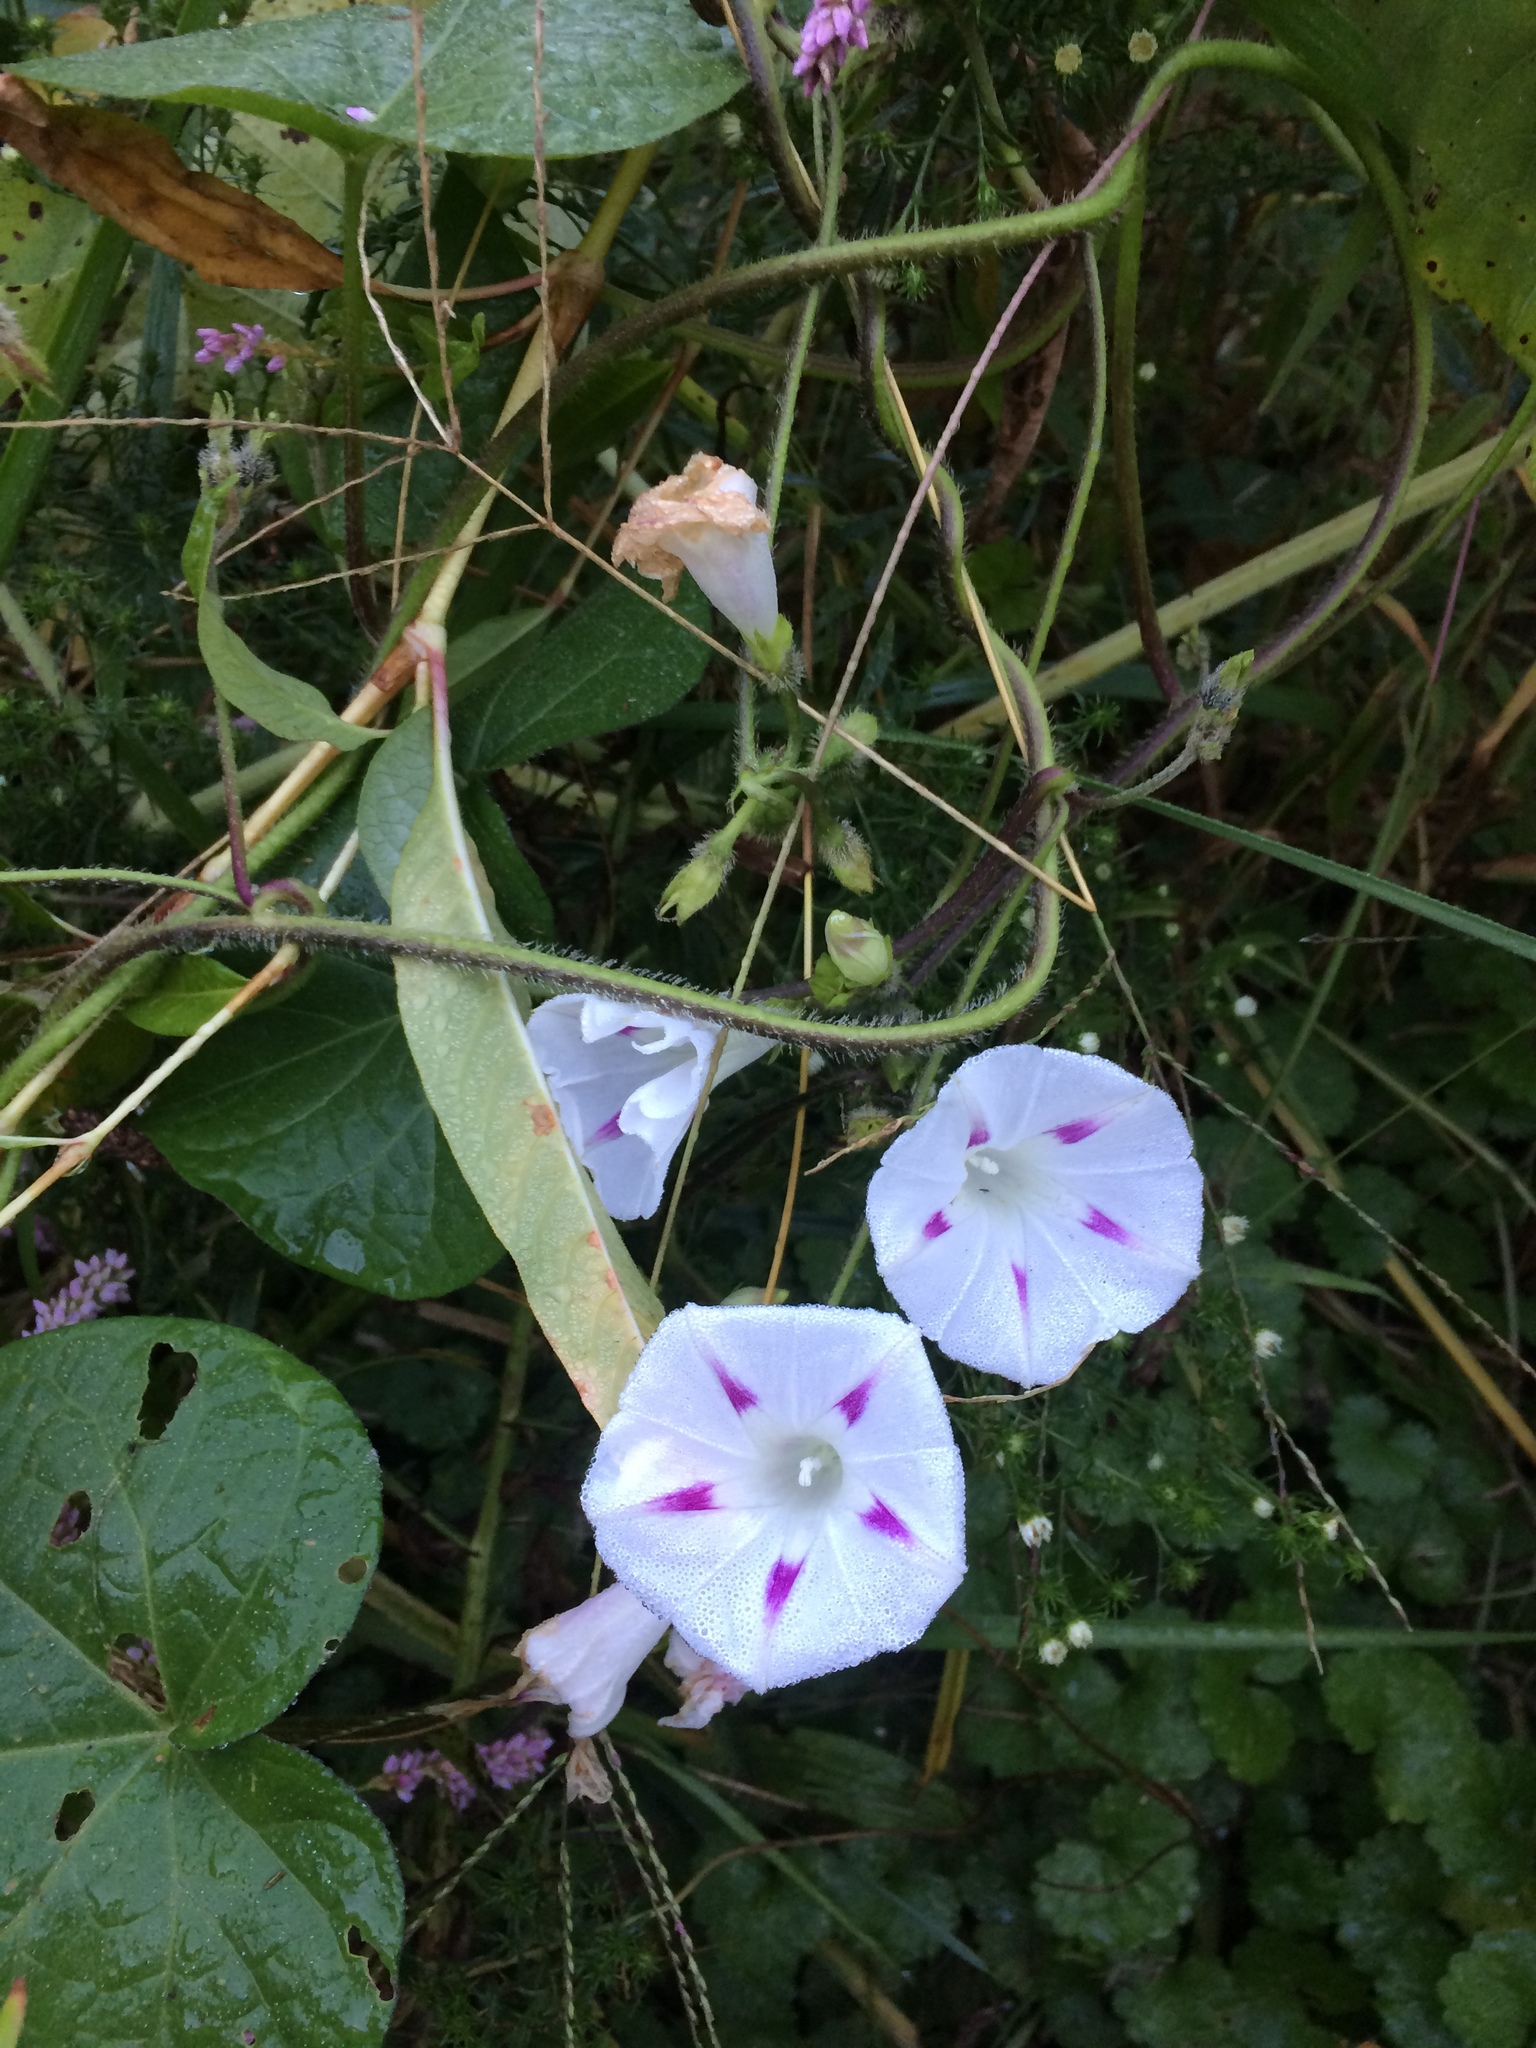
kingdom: Plantae
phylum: Tracheophyta
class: Magnoliopsida
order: Solanales
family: Convolvulaceae
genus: Ipomoea
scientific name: Ipomoea purpurea
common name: Common morning-glory
